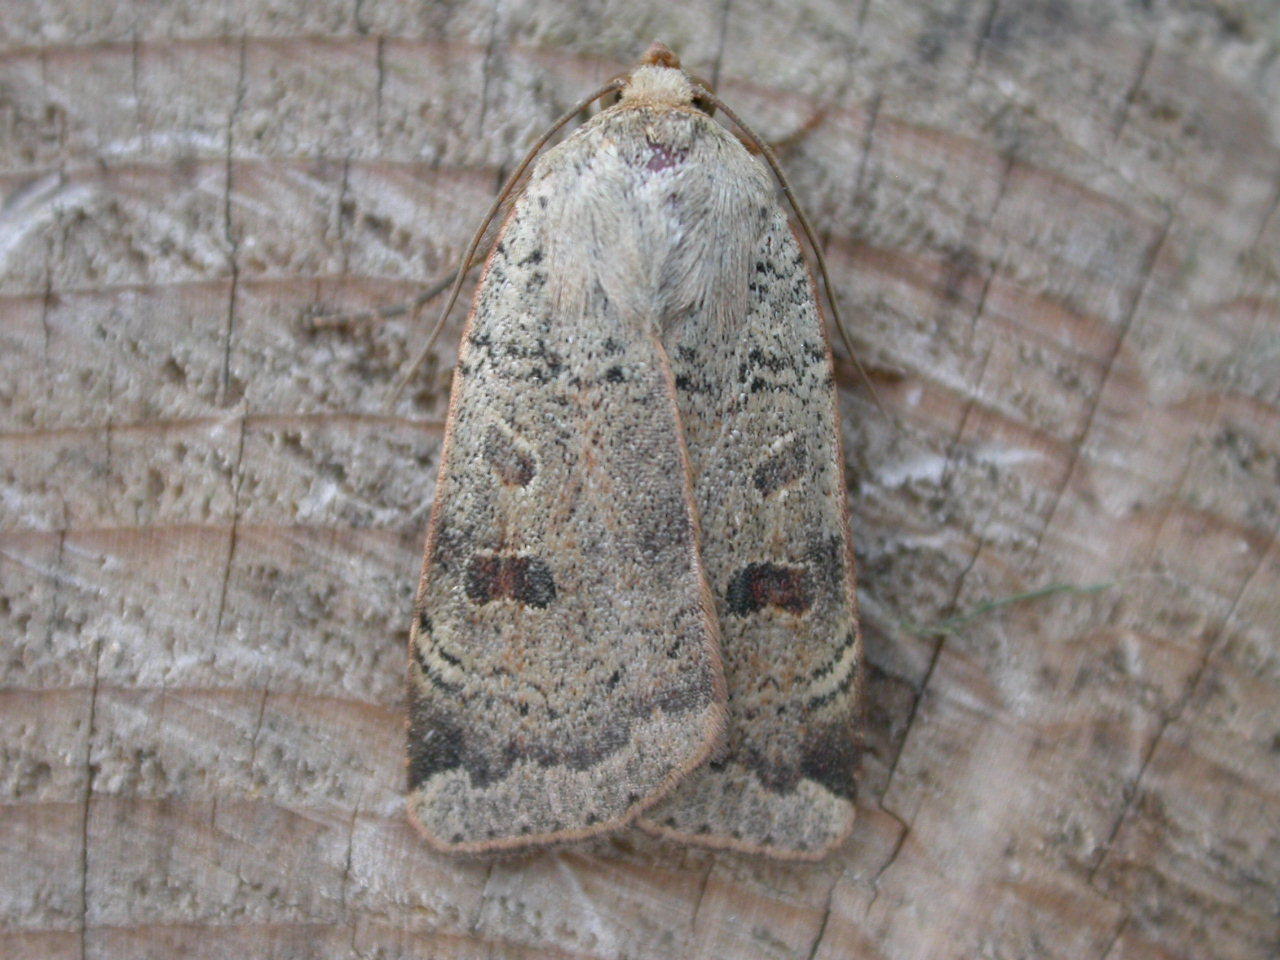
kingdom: Animalia
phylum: Arthropoda
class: Insecta
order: Lepidoptera
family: Noctuidae
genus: Noctua
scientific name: Noctua comes
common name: Lesser yellow underwing
